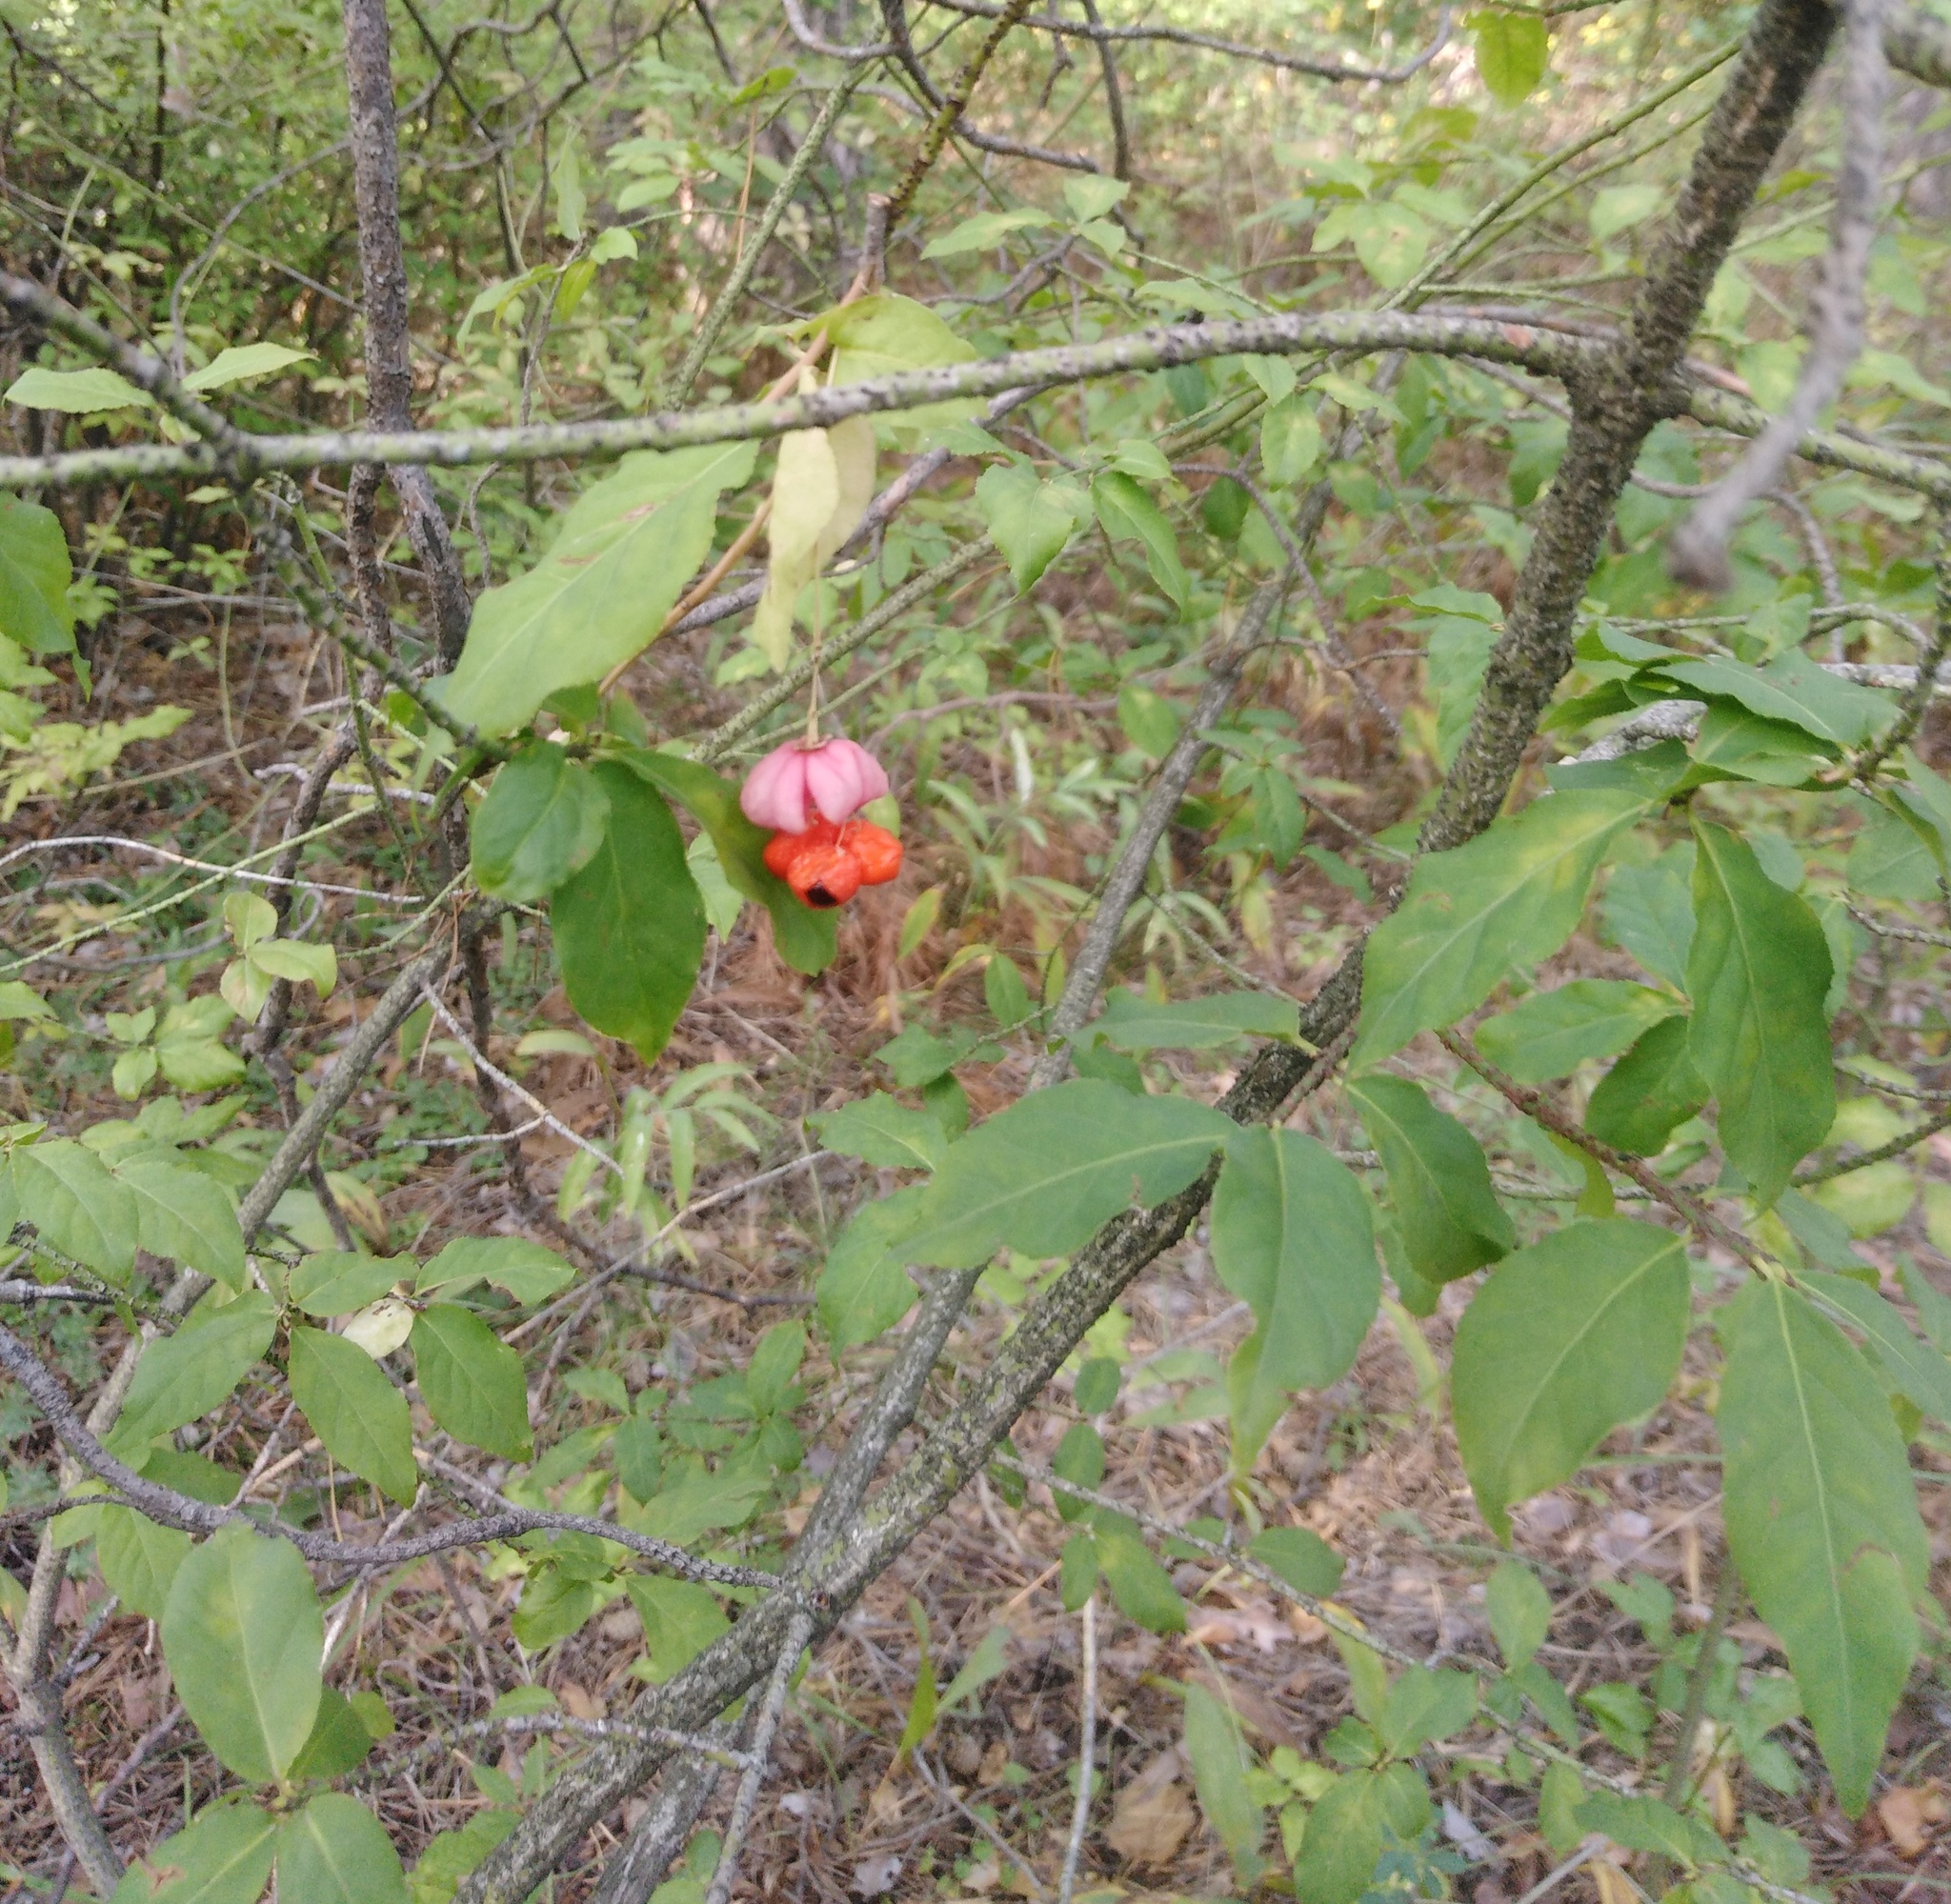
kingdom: Plantae
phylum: Tracheophyta
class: Magnoliopsida
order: Celastrales
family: Celastraceae
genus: Euonymus
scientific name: Euonymus verrucosus
